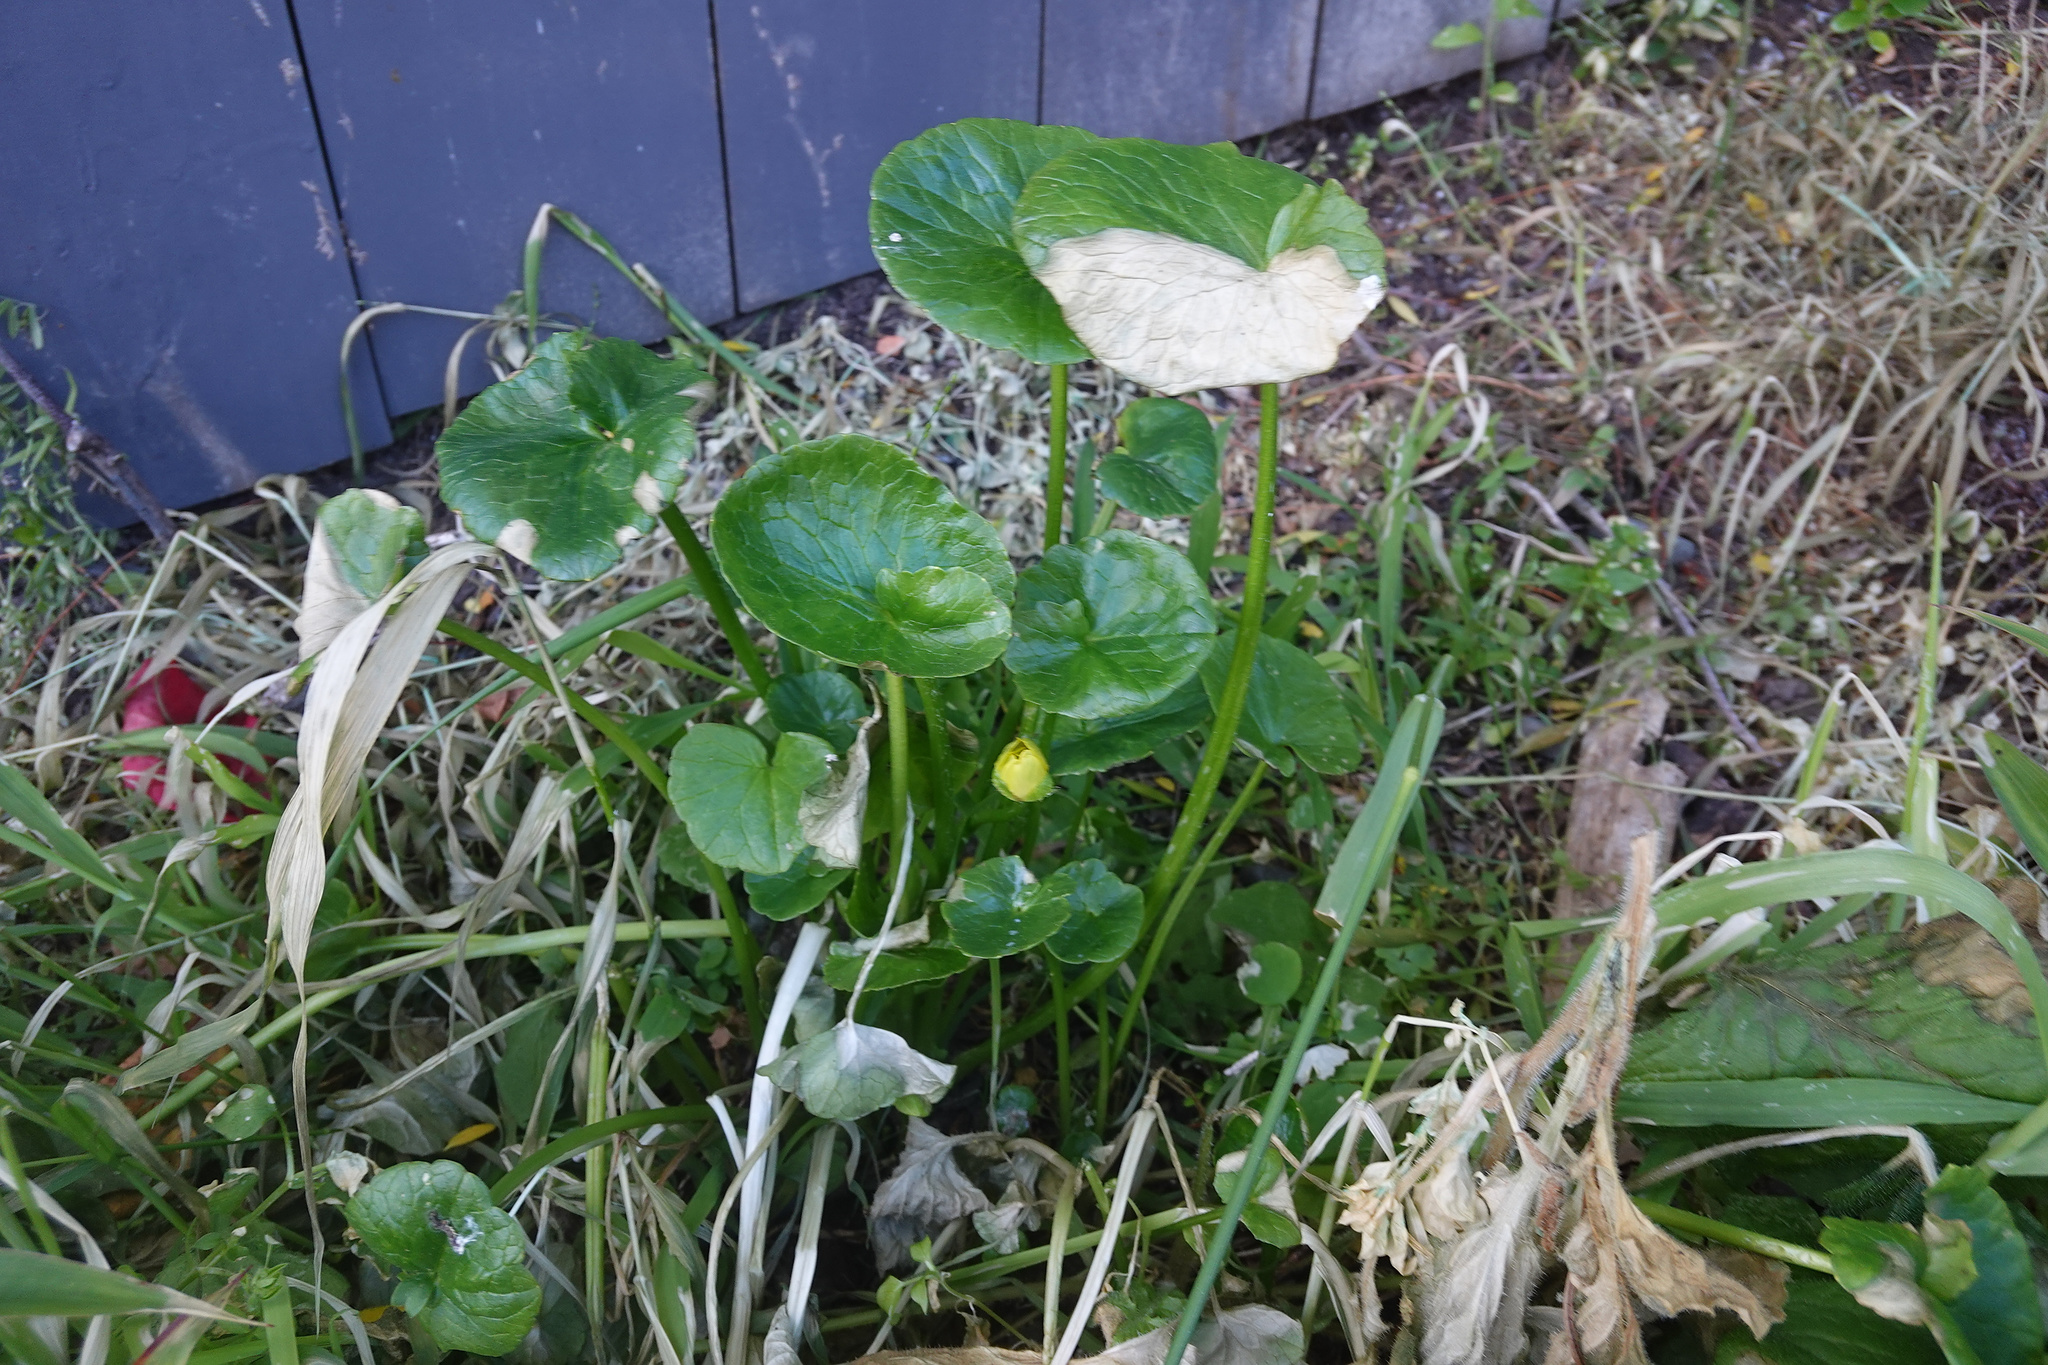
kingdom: Plantae
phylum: Tracheophyta
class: Magnoliopsida
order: Ranunculales
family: Ranunculaceae
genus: Ficaria
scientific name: Ficaria verna
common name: Lesser celandine
